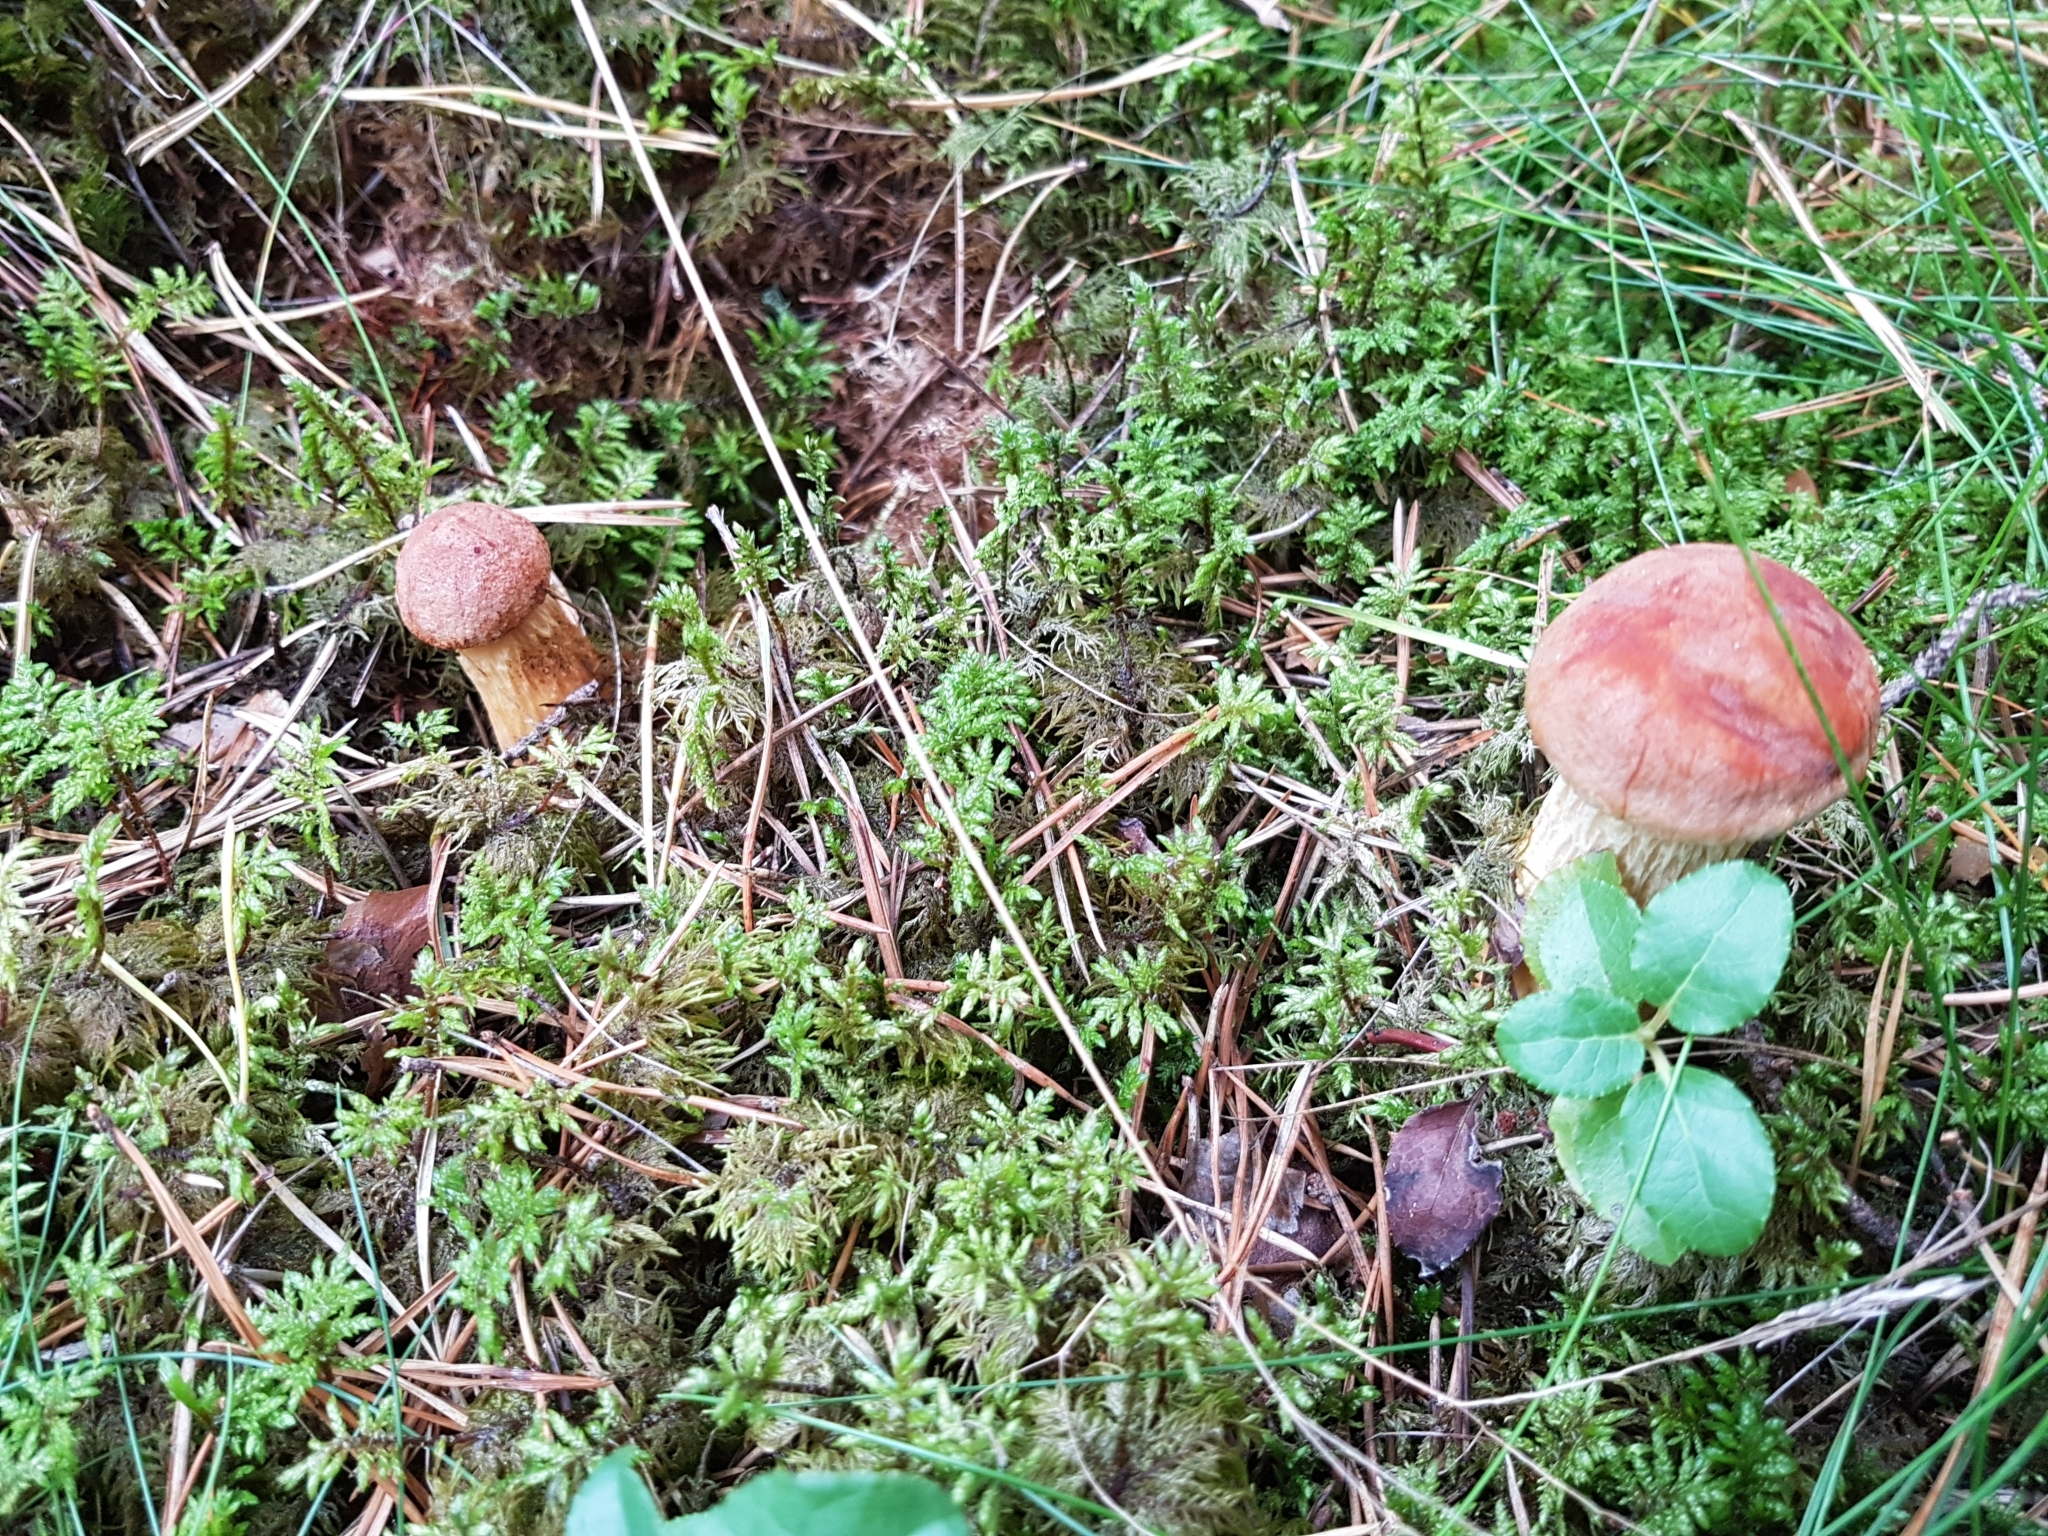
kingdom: Fungi
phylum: Basidiomycota
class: Agaricomycetes
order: Boletales
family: Boletaceae
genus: Aureoboletus
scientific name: Aureoboletus projectellus
